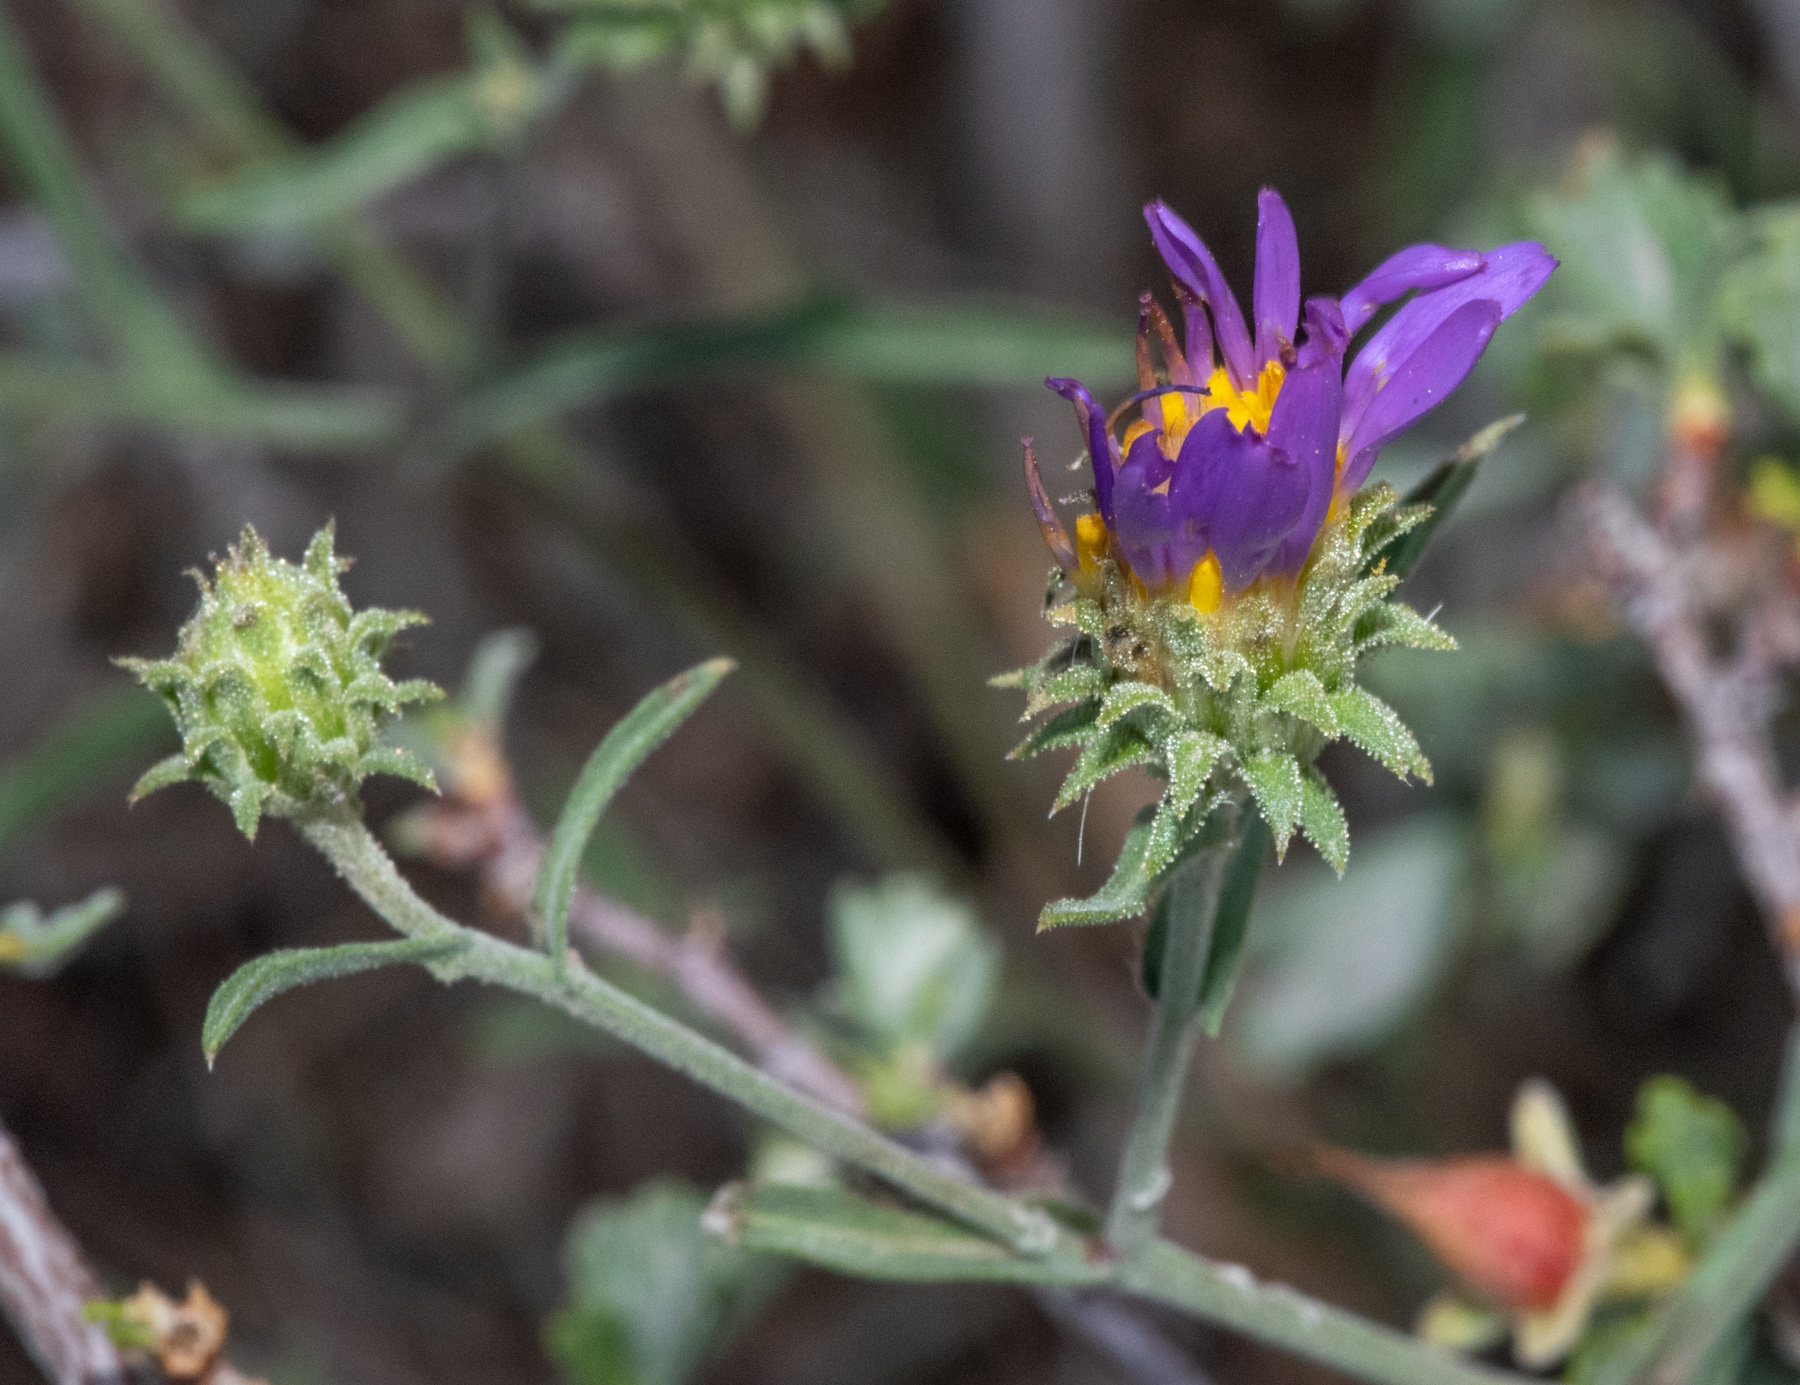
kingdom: Plantae
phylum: Tracheophyta
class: Magnoliopsida
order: Asterales
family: Asteraceae
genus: Dieteria
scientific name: Dieteria canescens
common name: Hoary-aster
